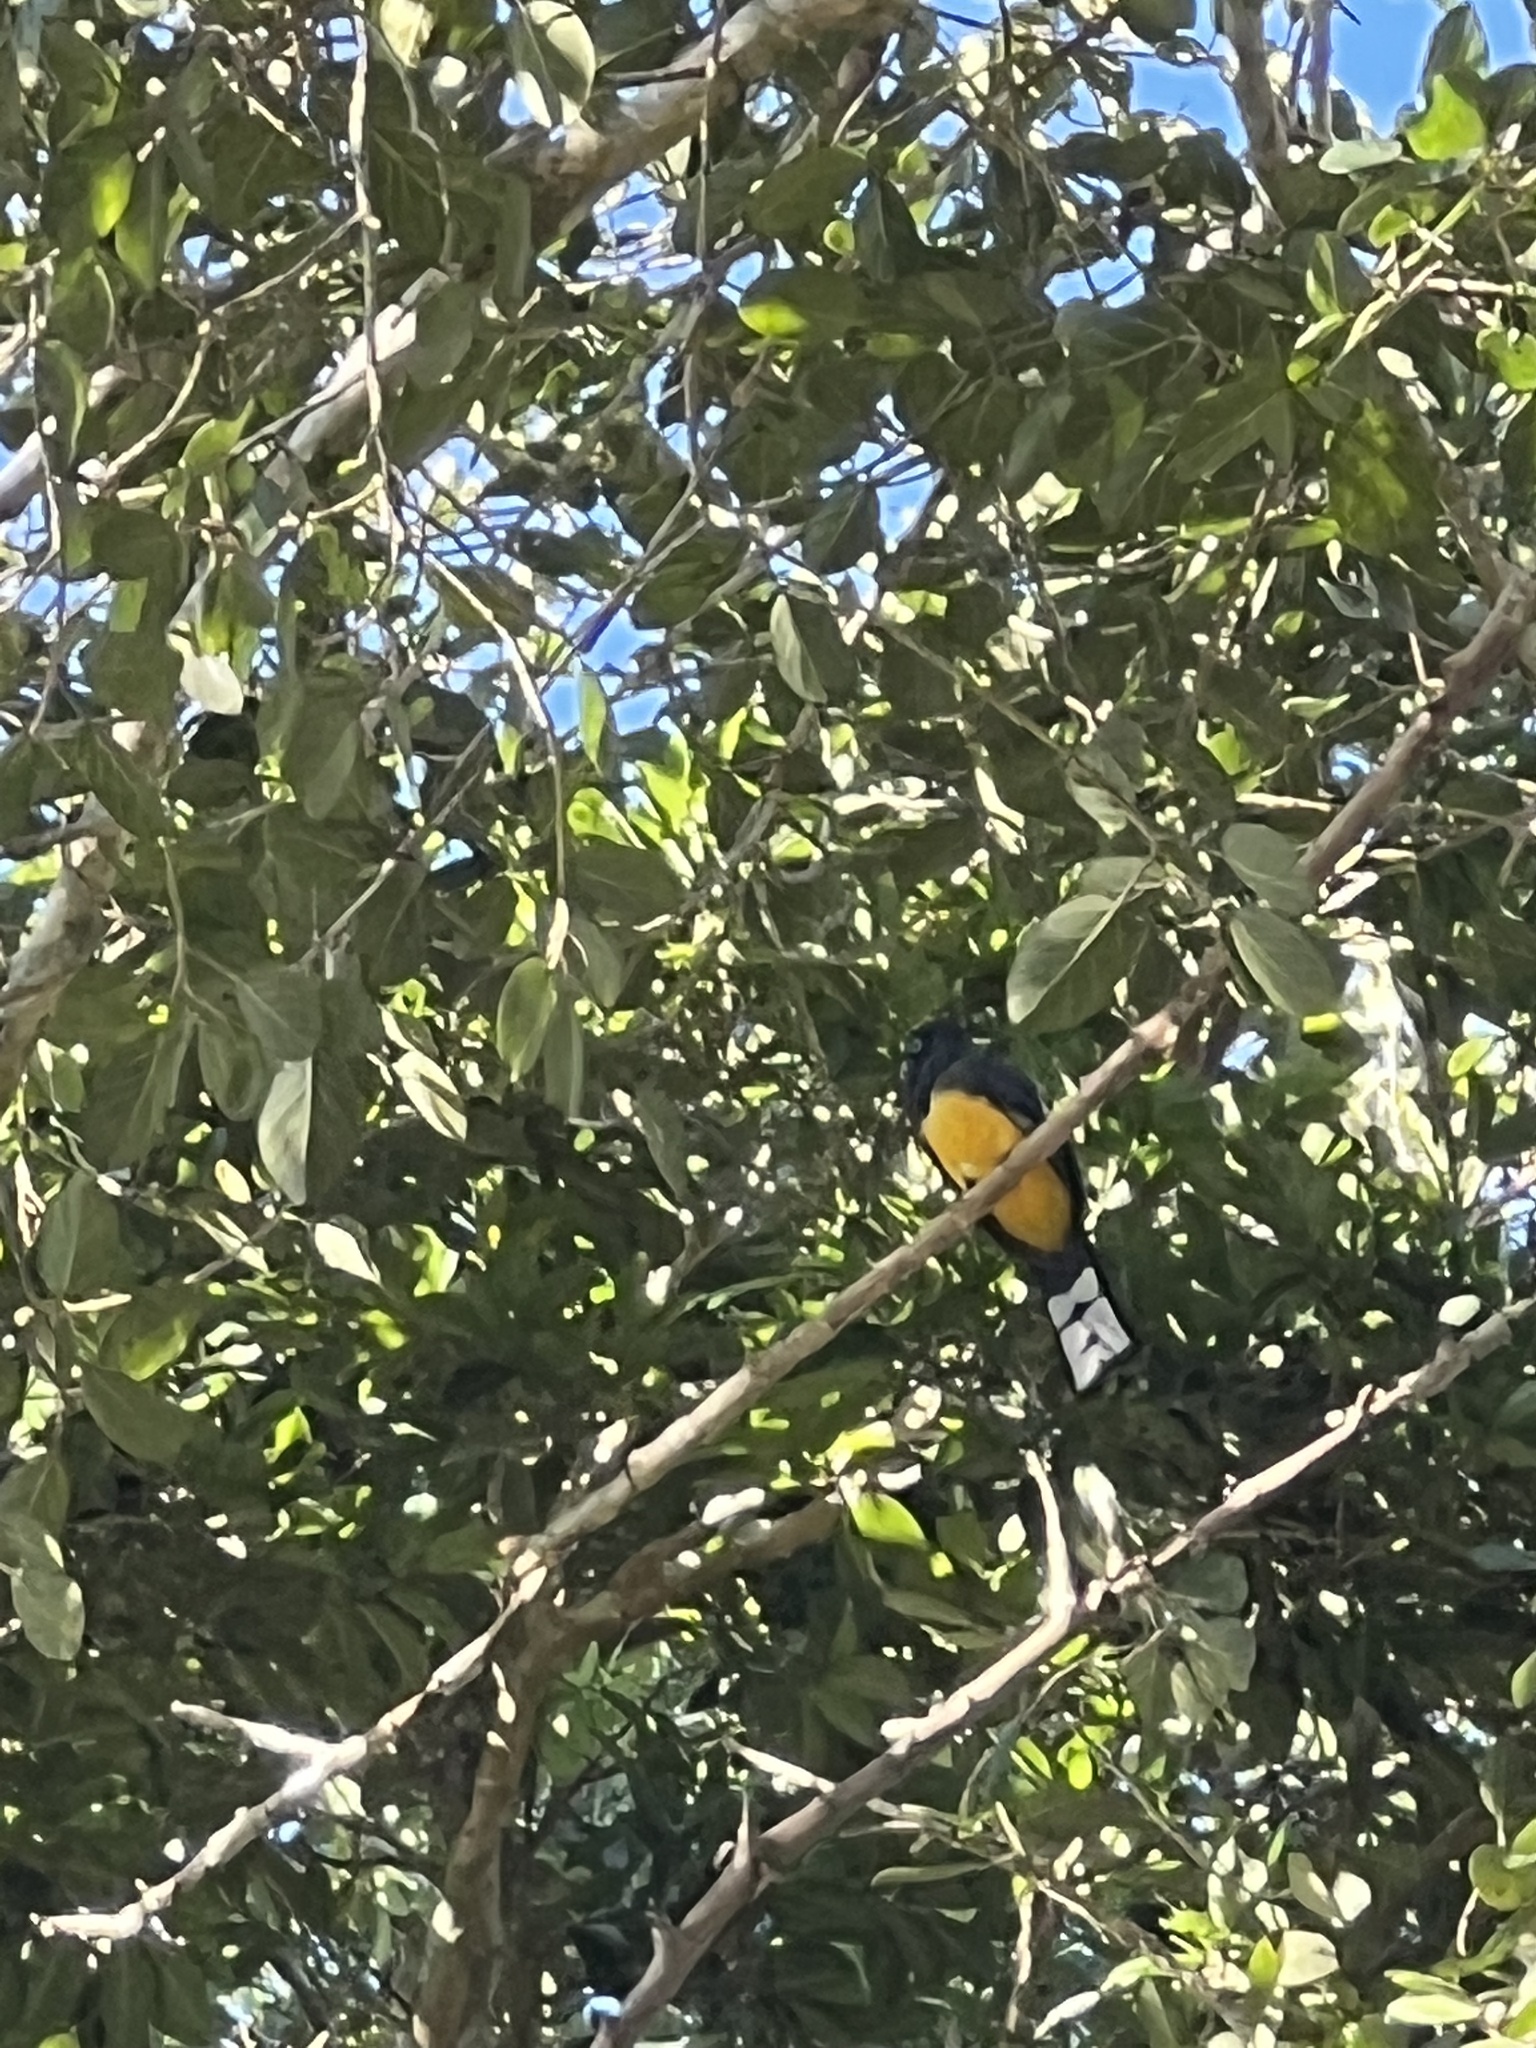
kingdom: Animalia
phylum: Chordata
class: Aves
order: Trogoniformes
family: Trogonidae
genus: Trogon
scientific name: Trogon melanocephalus
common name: Black-headed trogon
